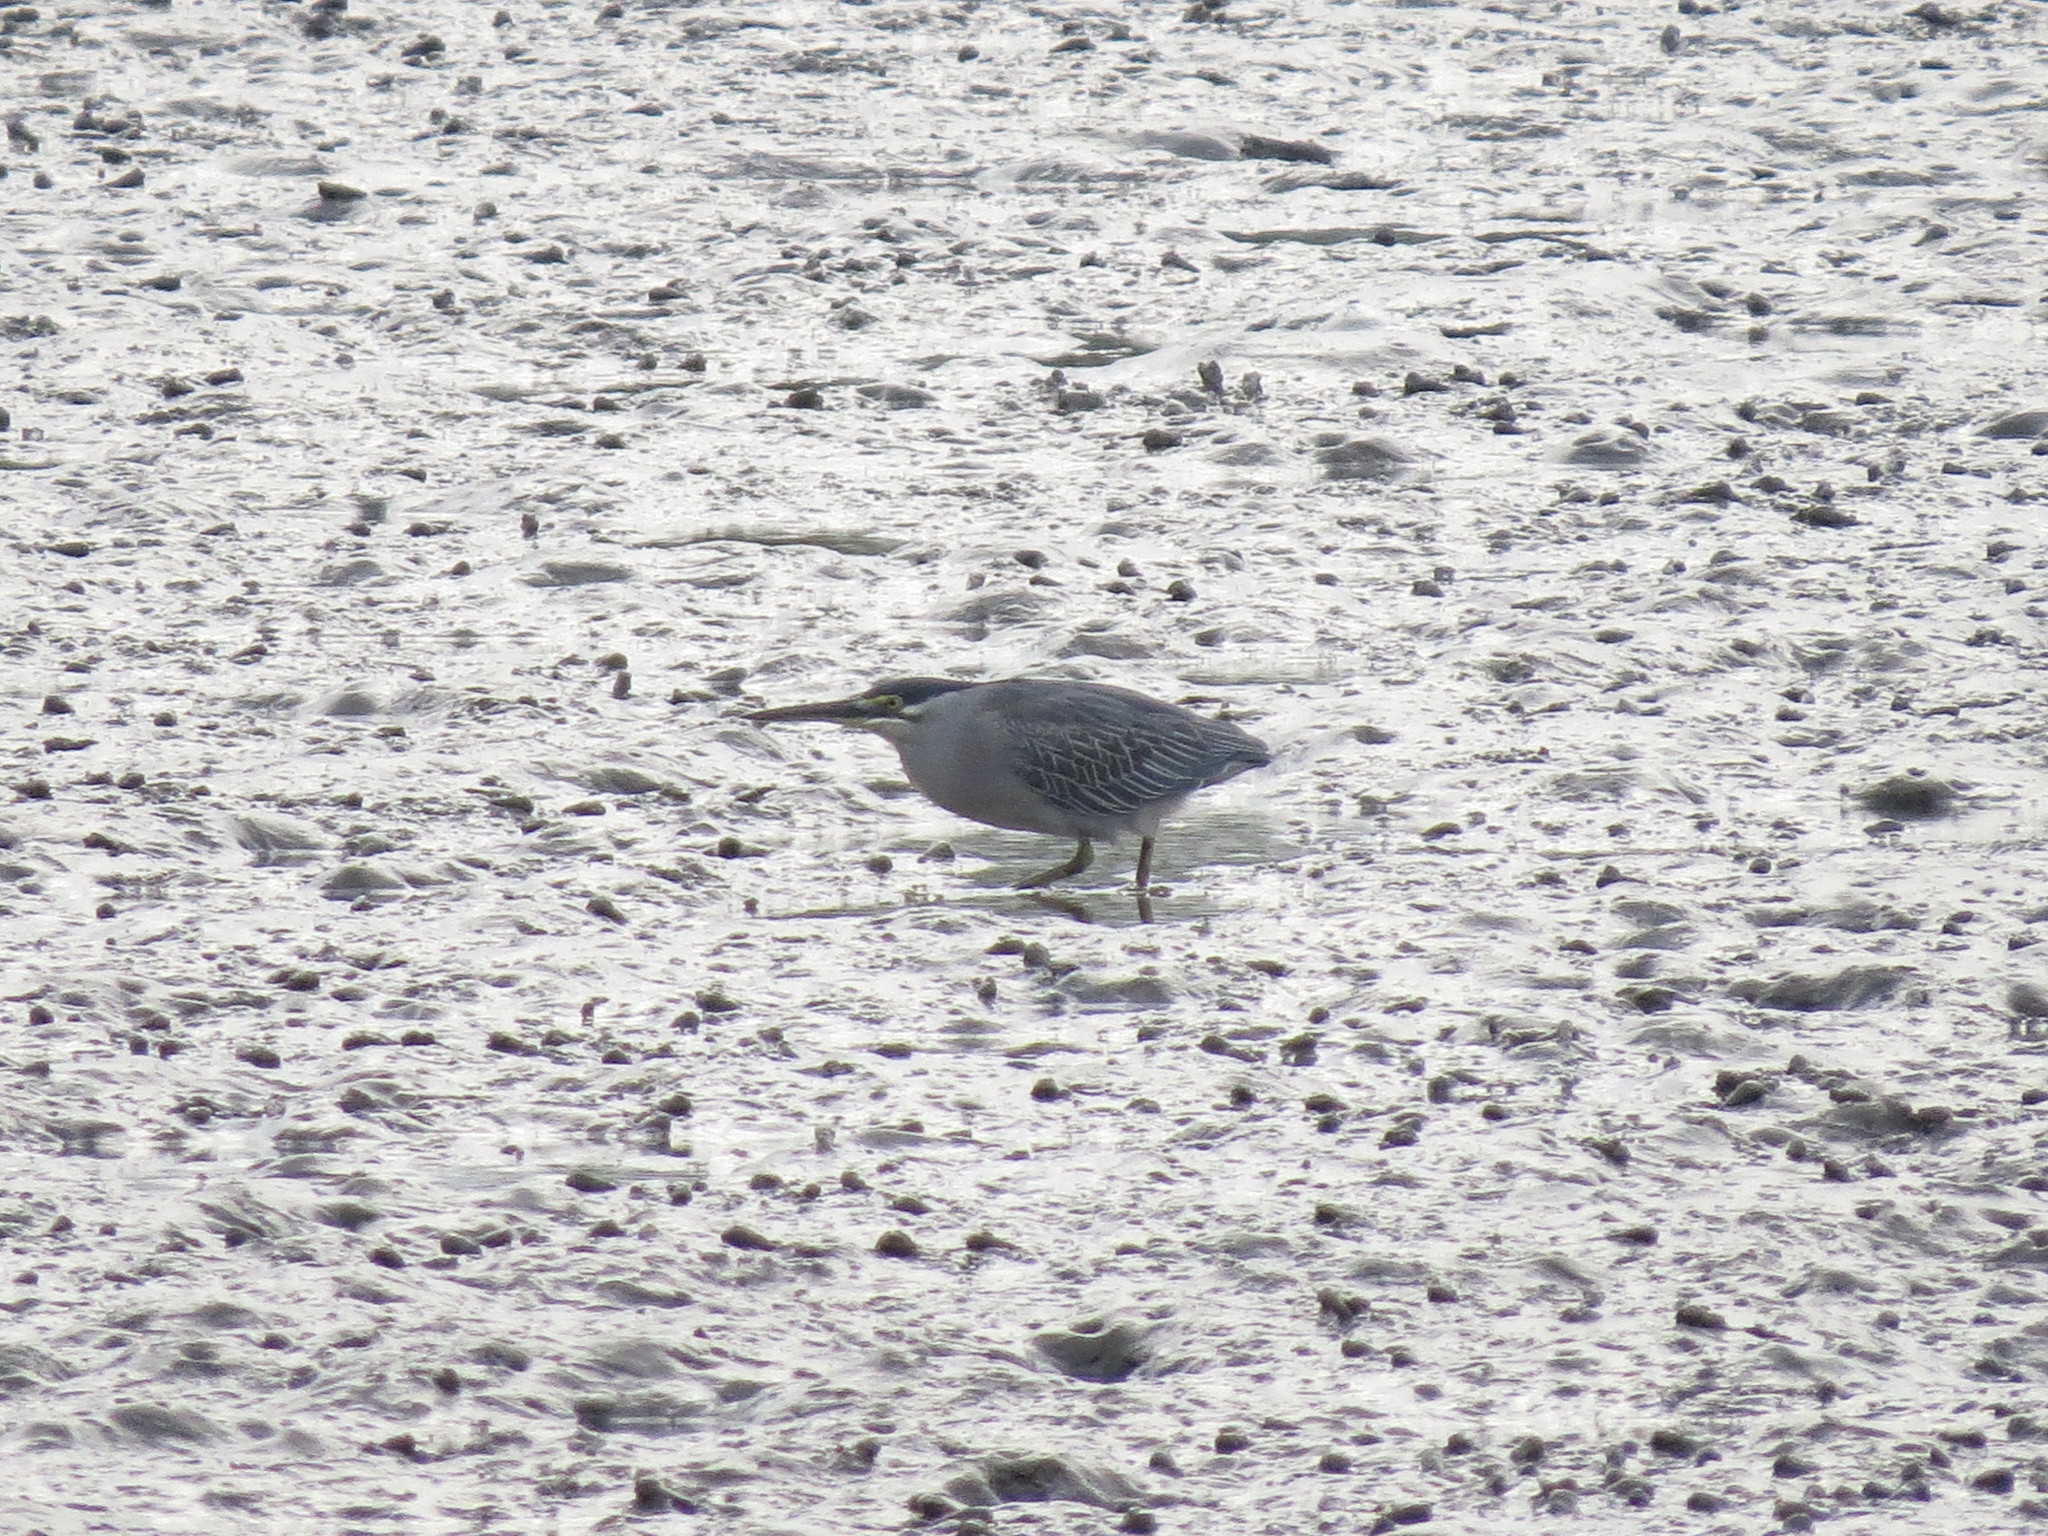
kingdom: Animalia
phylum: Chordata
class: Aves
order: Pelecaniformes
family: Ardeidae
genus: Butorides
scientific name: Butorides striata
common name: Striated heron
